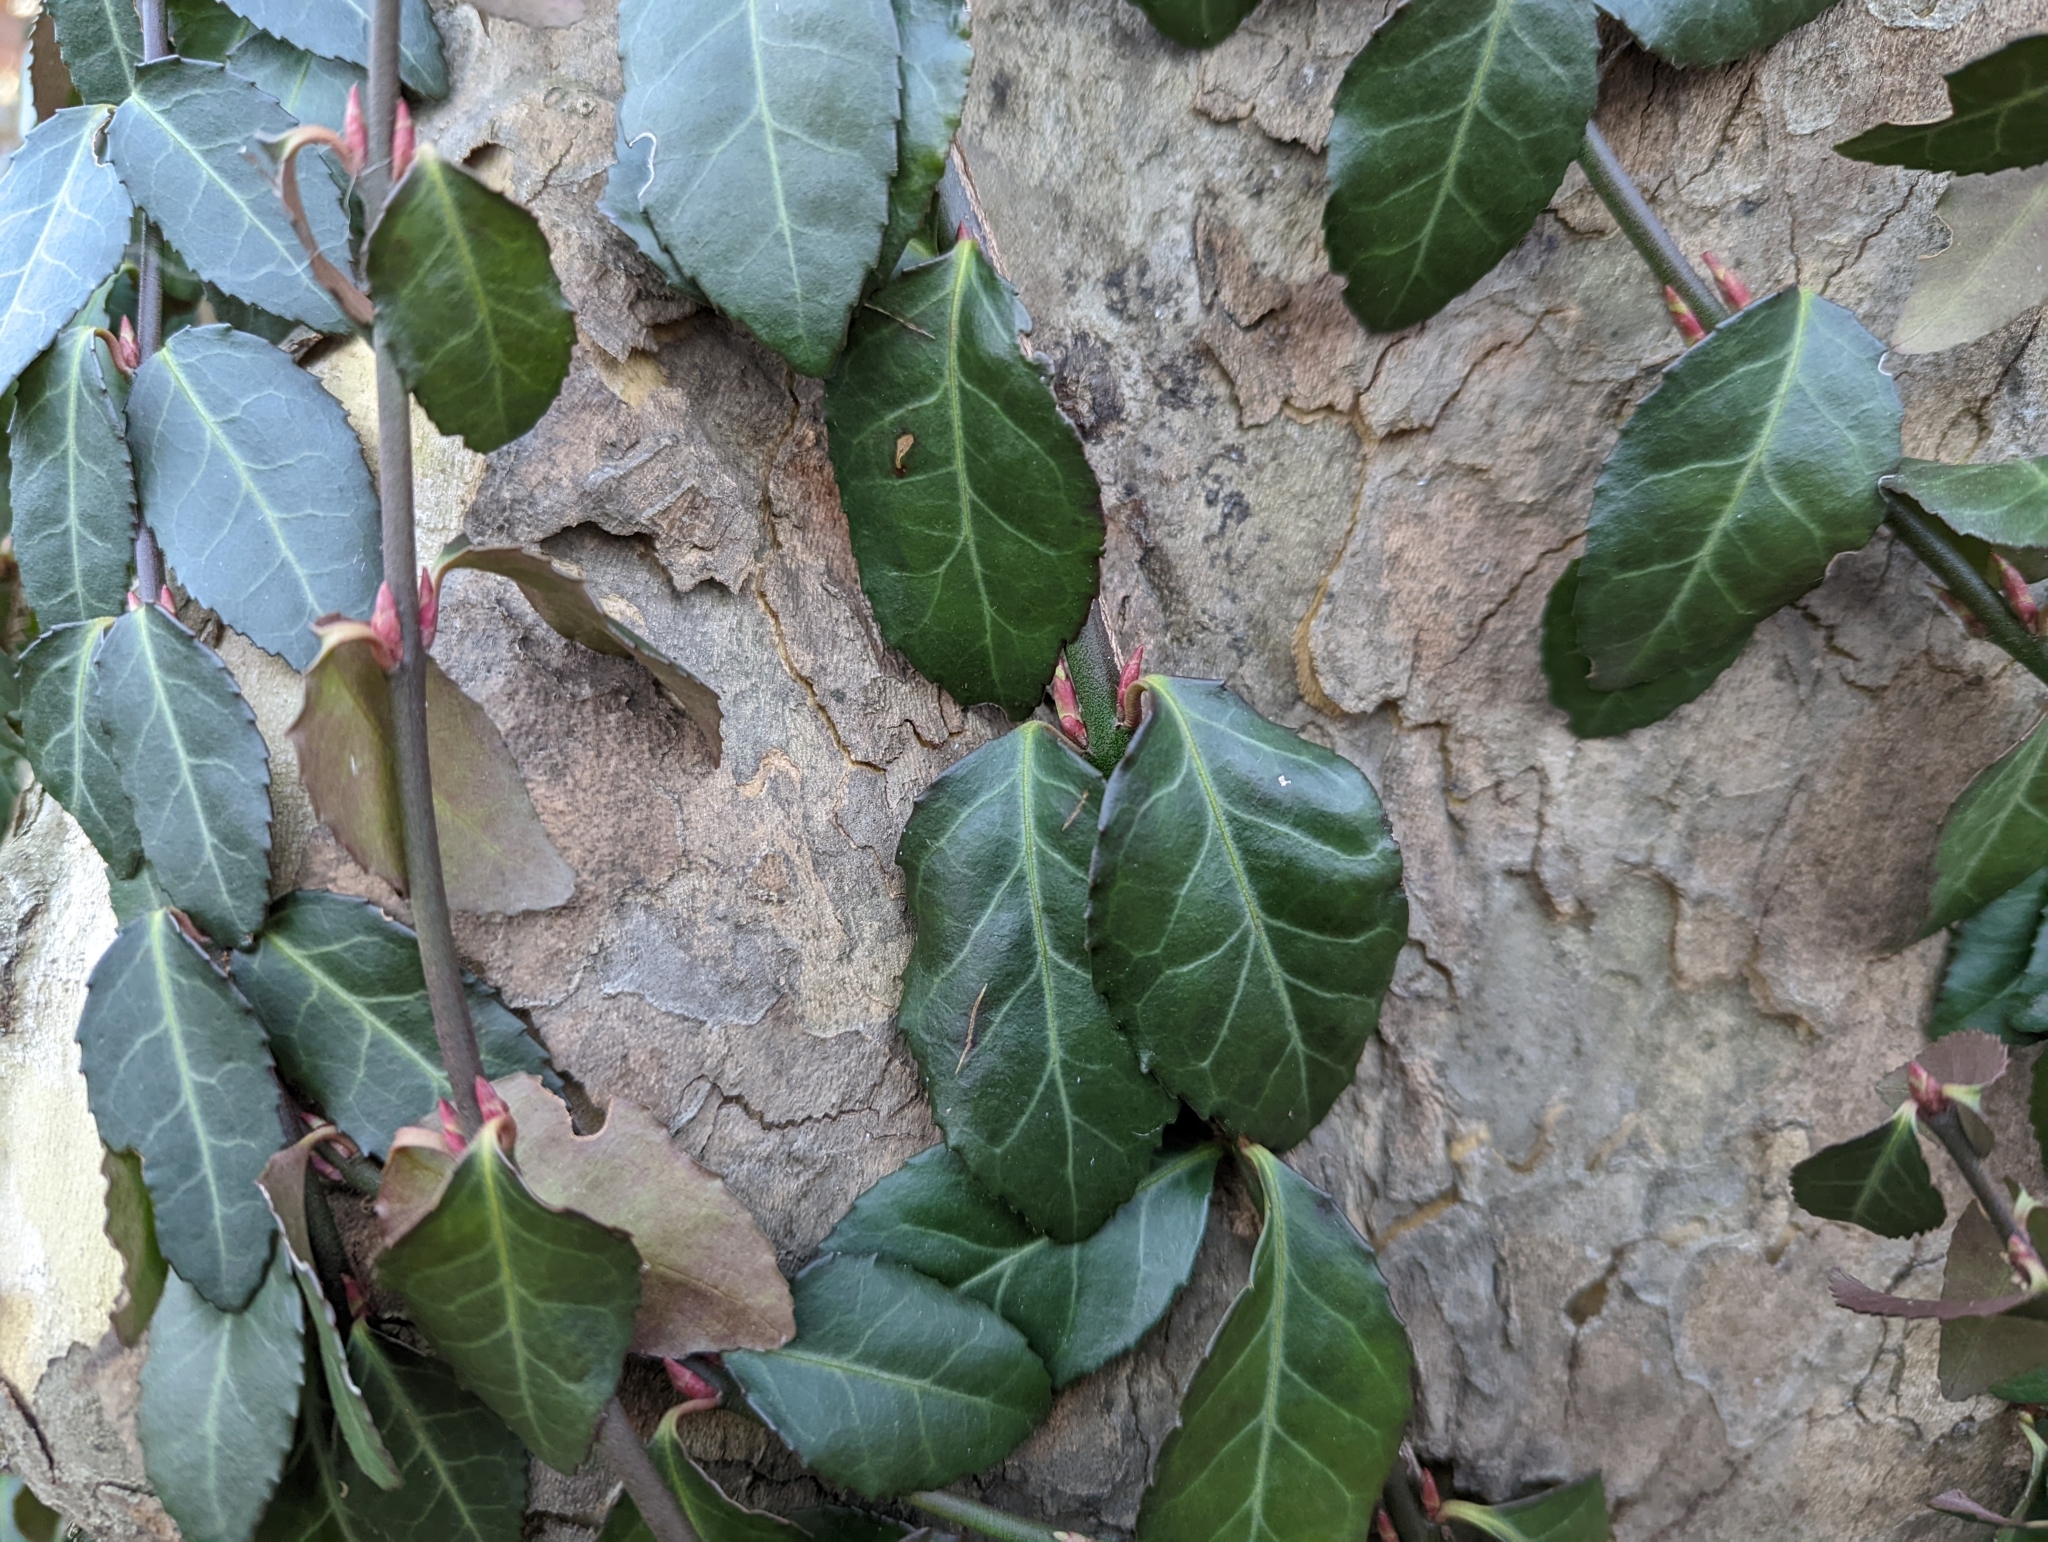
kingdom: Plantae
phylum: Tracheophyta
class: Magnoliopsida
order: Celastrales
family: Celastraceae
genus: Euonymus
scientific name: Euonymus fortunei
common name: Climbing euonymus
